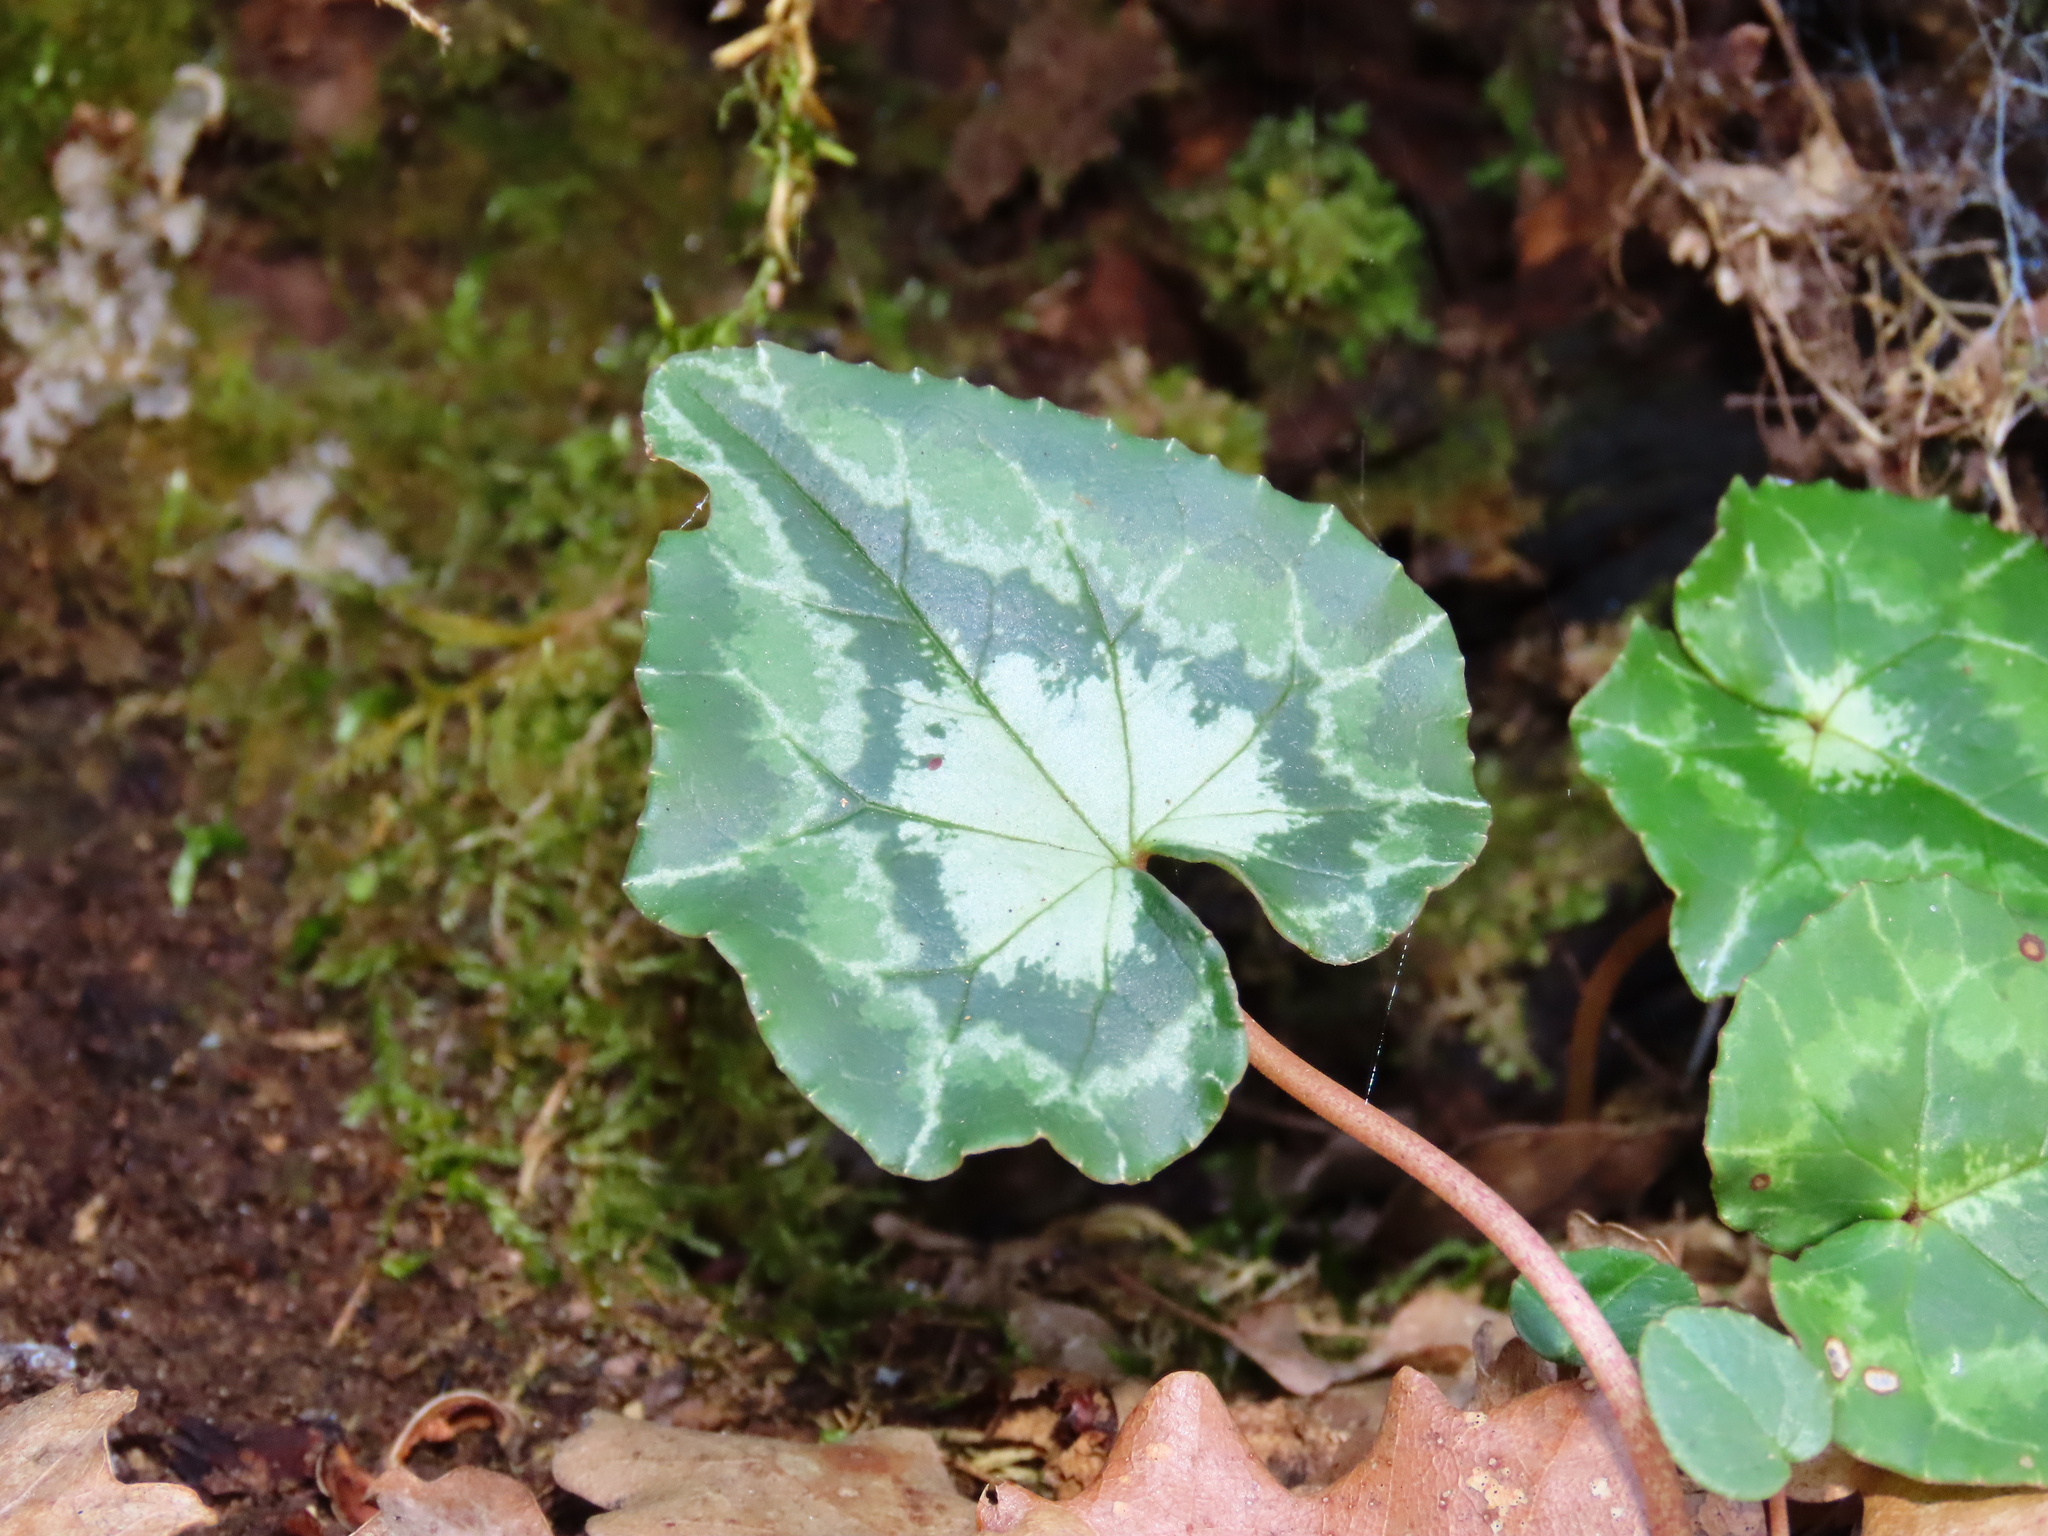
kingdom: Plantae
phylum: Tracheophyta
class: Magnoliopsida
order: Ericales
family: Primulaceae
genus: Cyclamen
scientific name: Cyclamen hederifolium
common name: Sowbread
